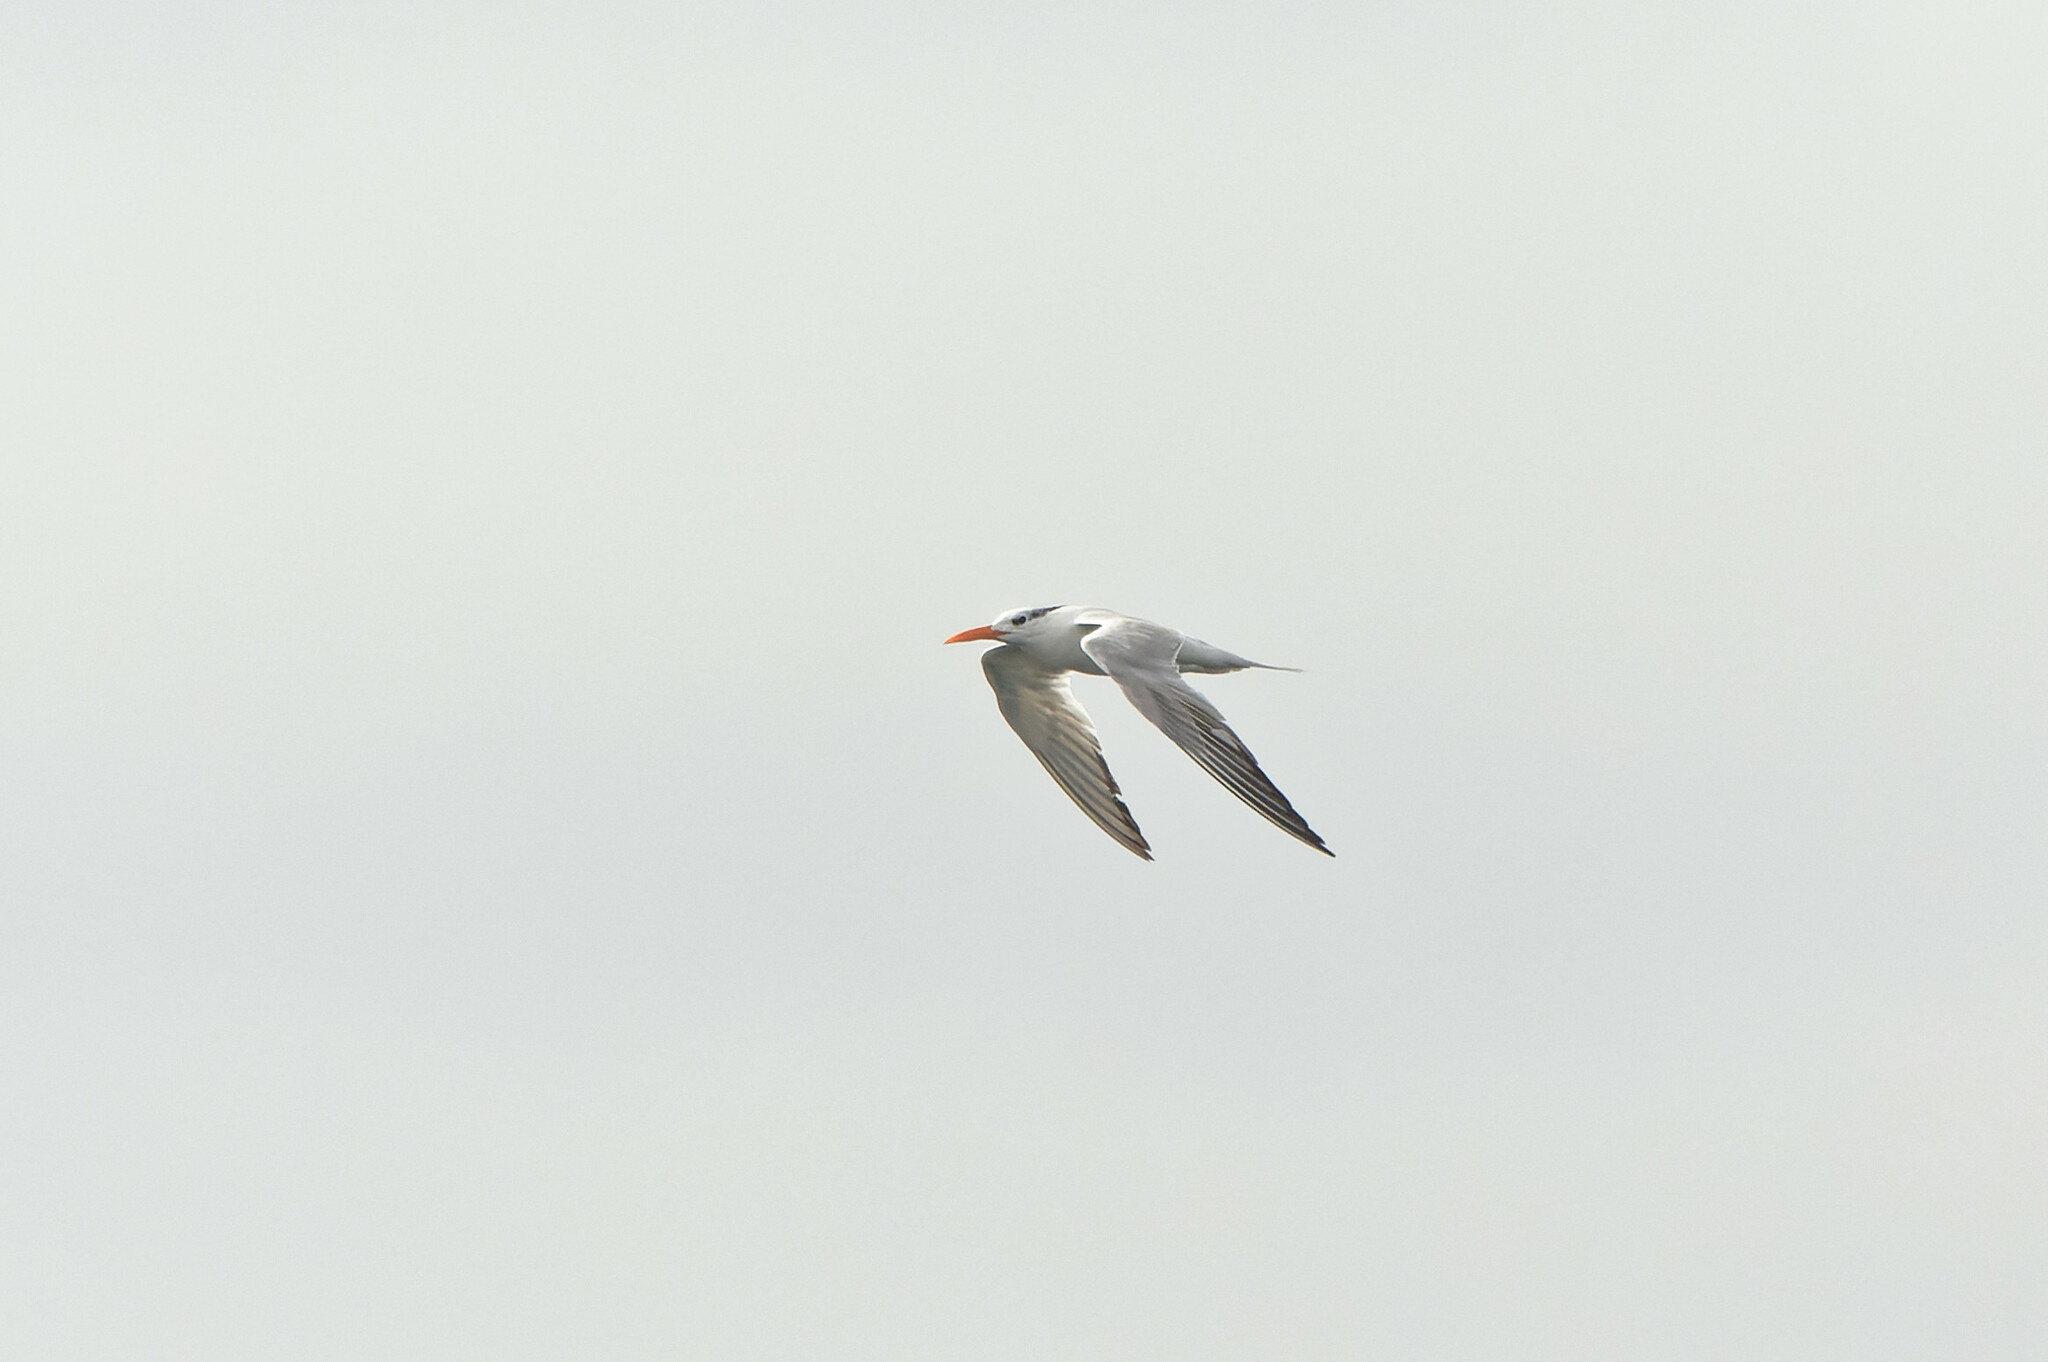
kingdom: Animalia
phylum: Chordata
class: Aves
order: Charadriiformes
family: Laridae
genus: Thalasseus
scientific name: Thalasseus maximus
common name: Royal tern
